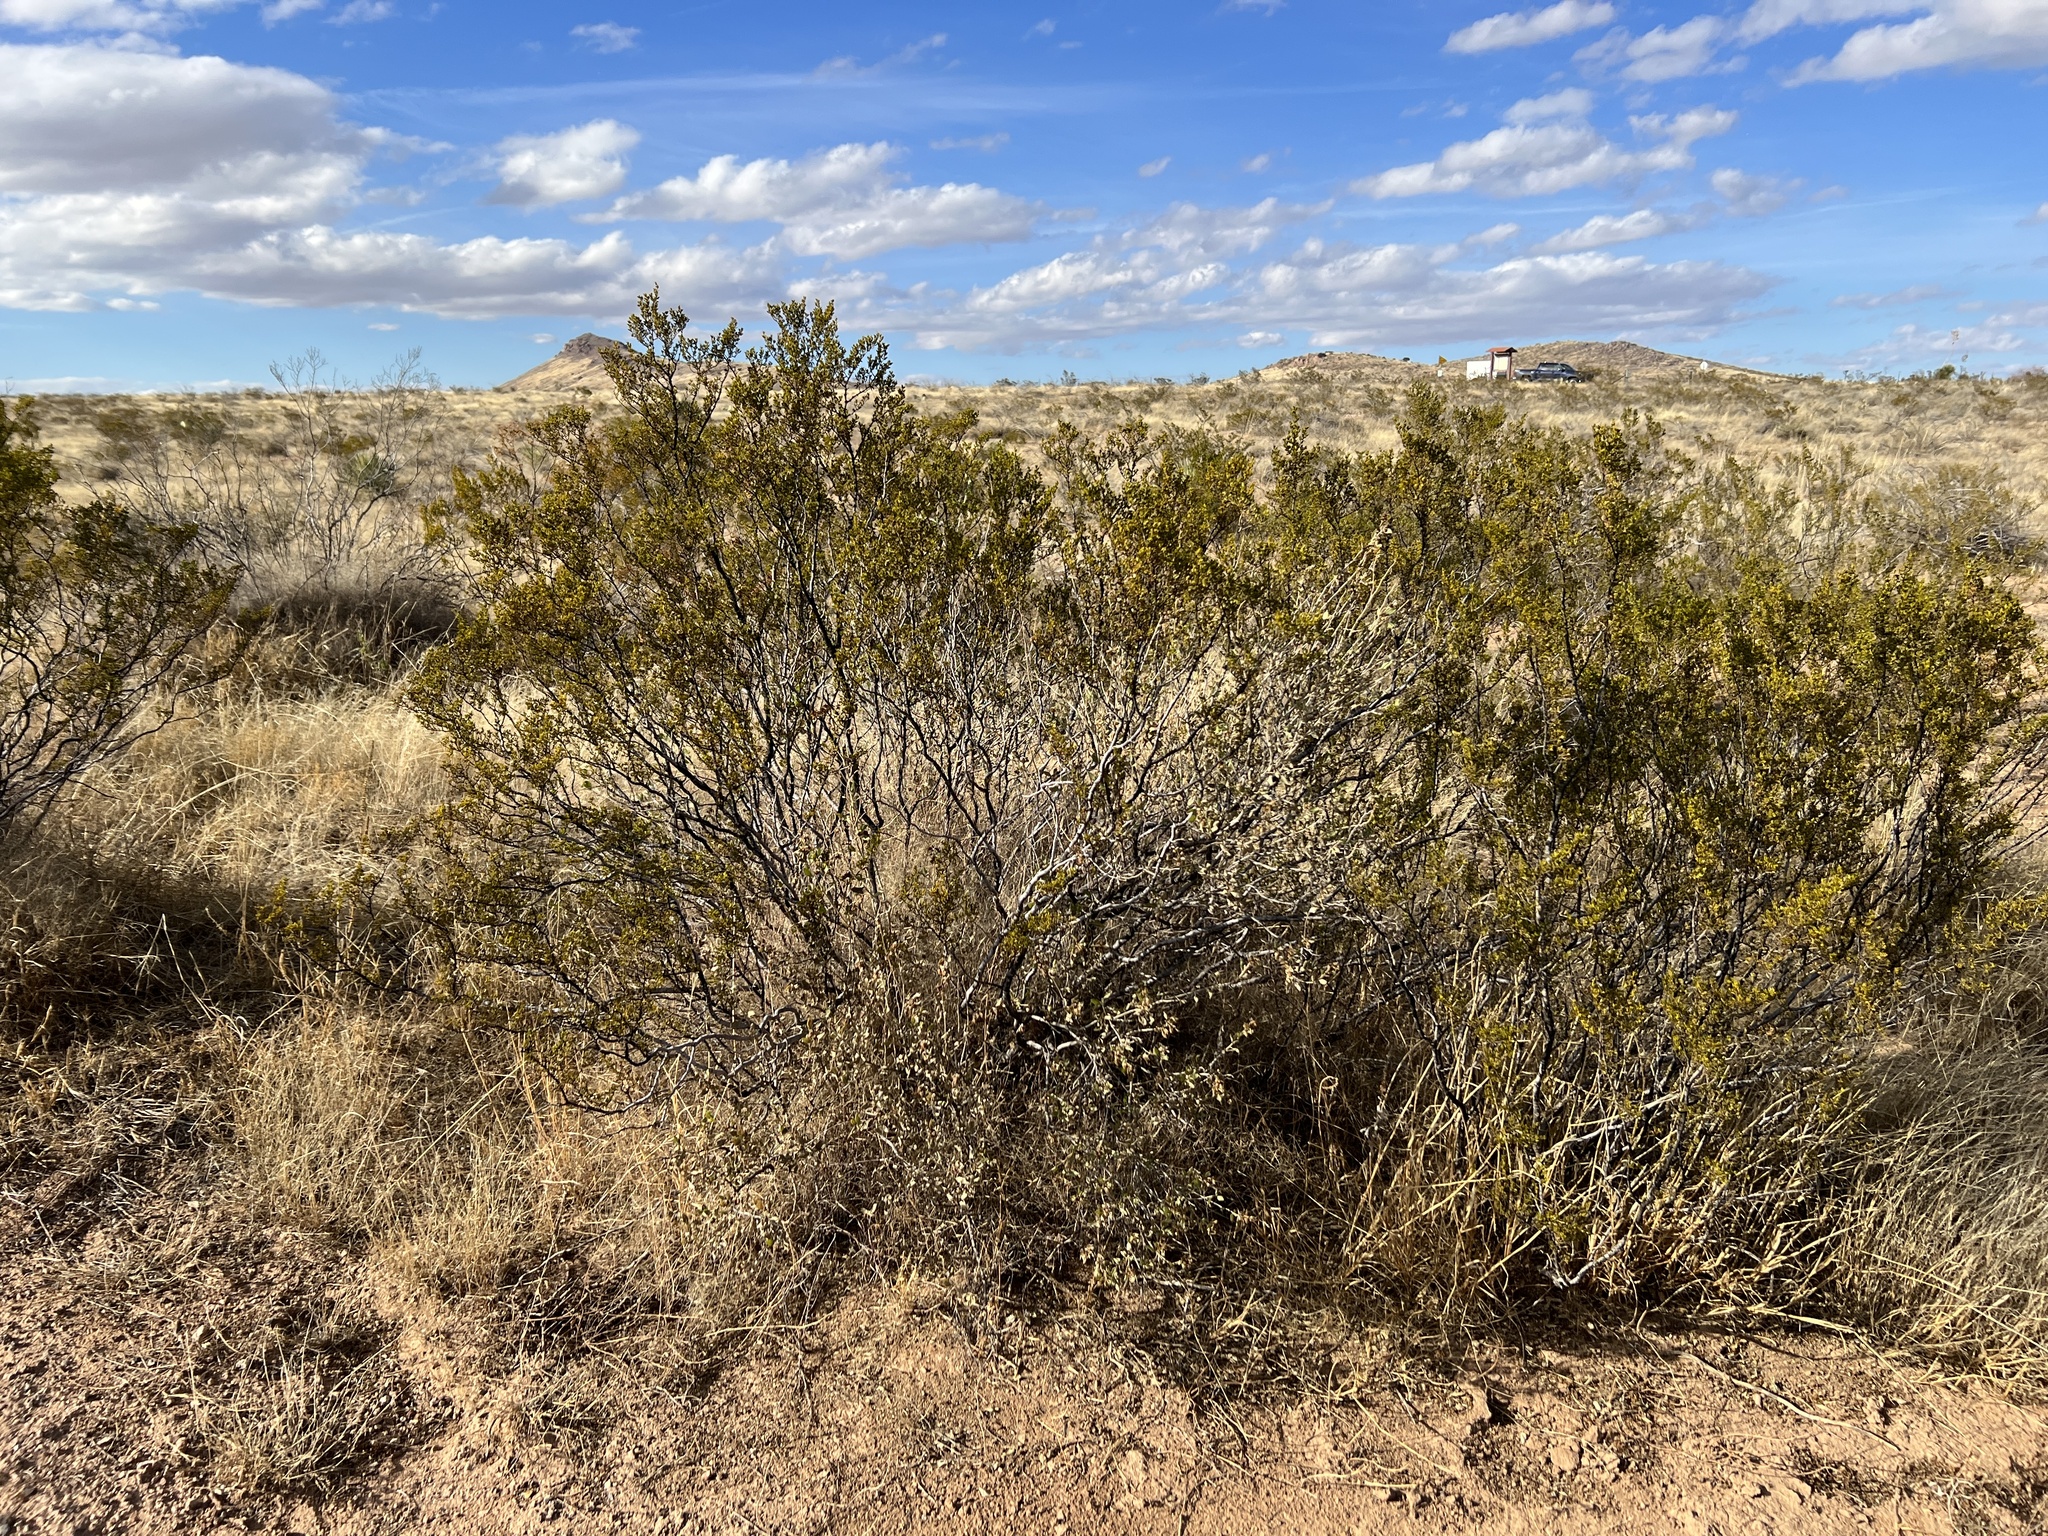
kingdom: Plantae
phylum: Tracheophyta
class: Magnoliopsida
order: Zygophyllales
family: Zygophyllaceae
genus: Larrea
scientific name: Larrea tridentata
